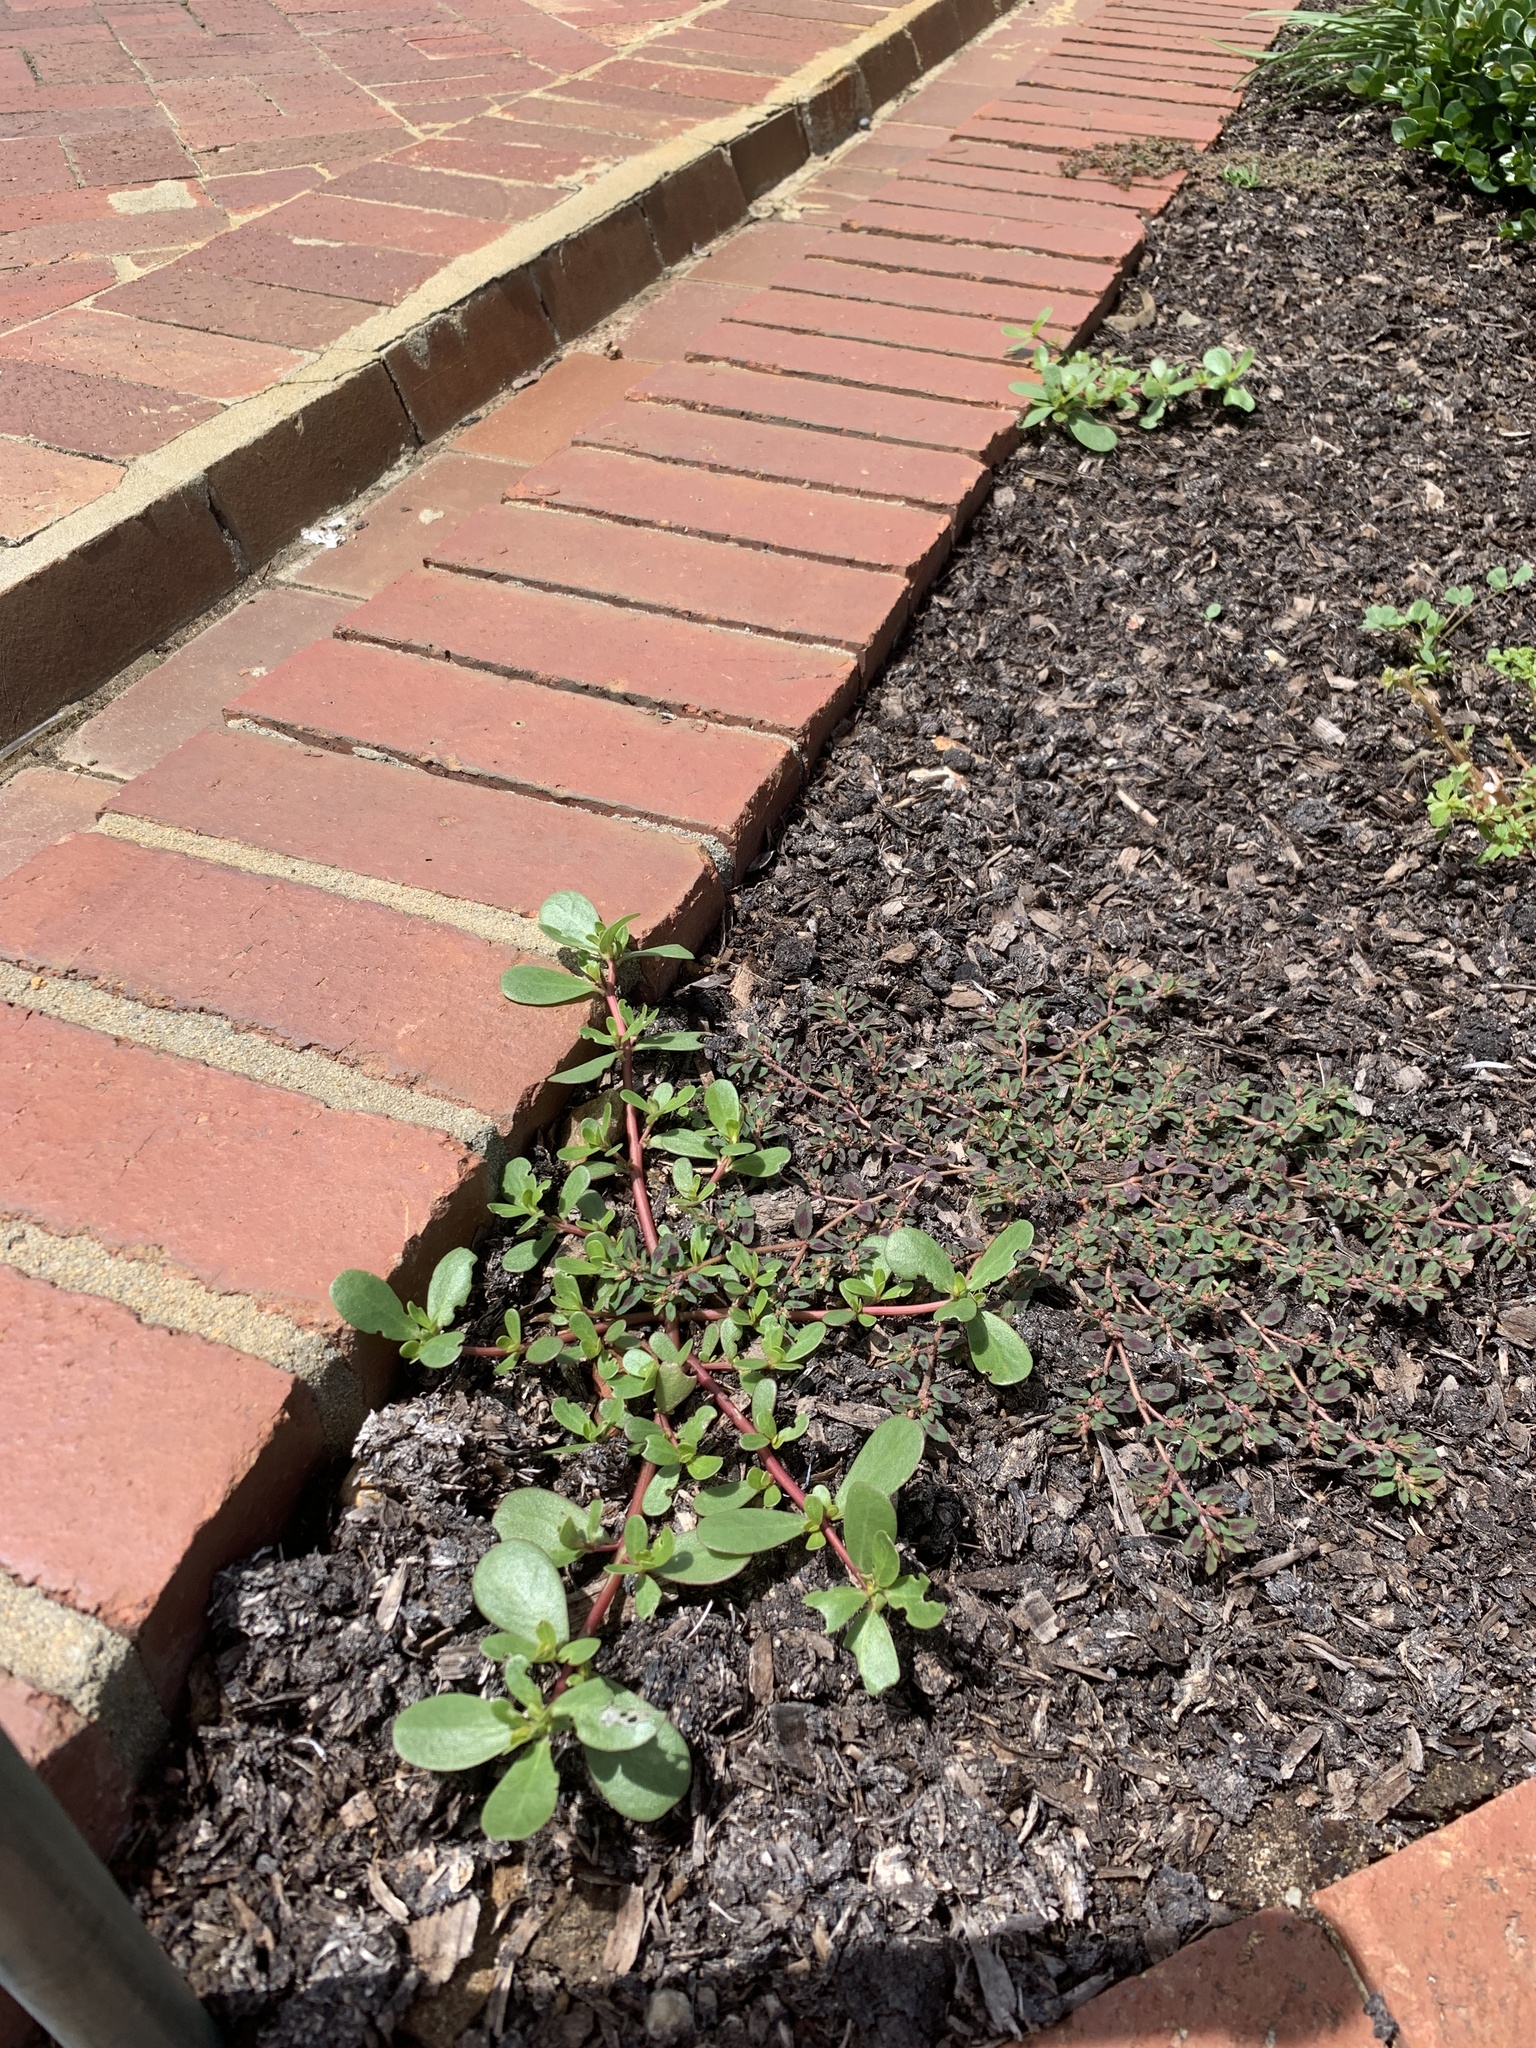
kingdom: Plantae
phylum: Tracheophyta
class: Magnoliopsida
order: Caryophyllales
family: Portulacaceae
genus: Portulaca
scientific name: Portulaca oleracea
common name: Common purslane
